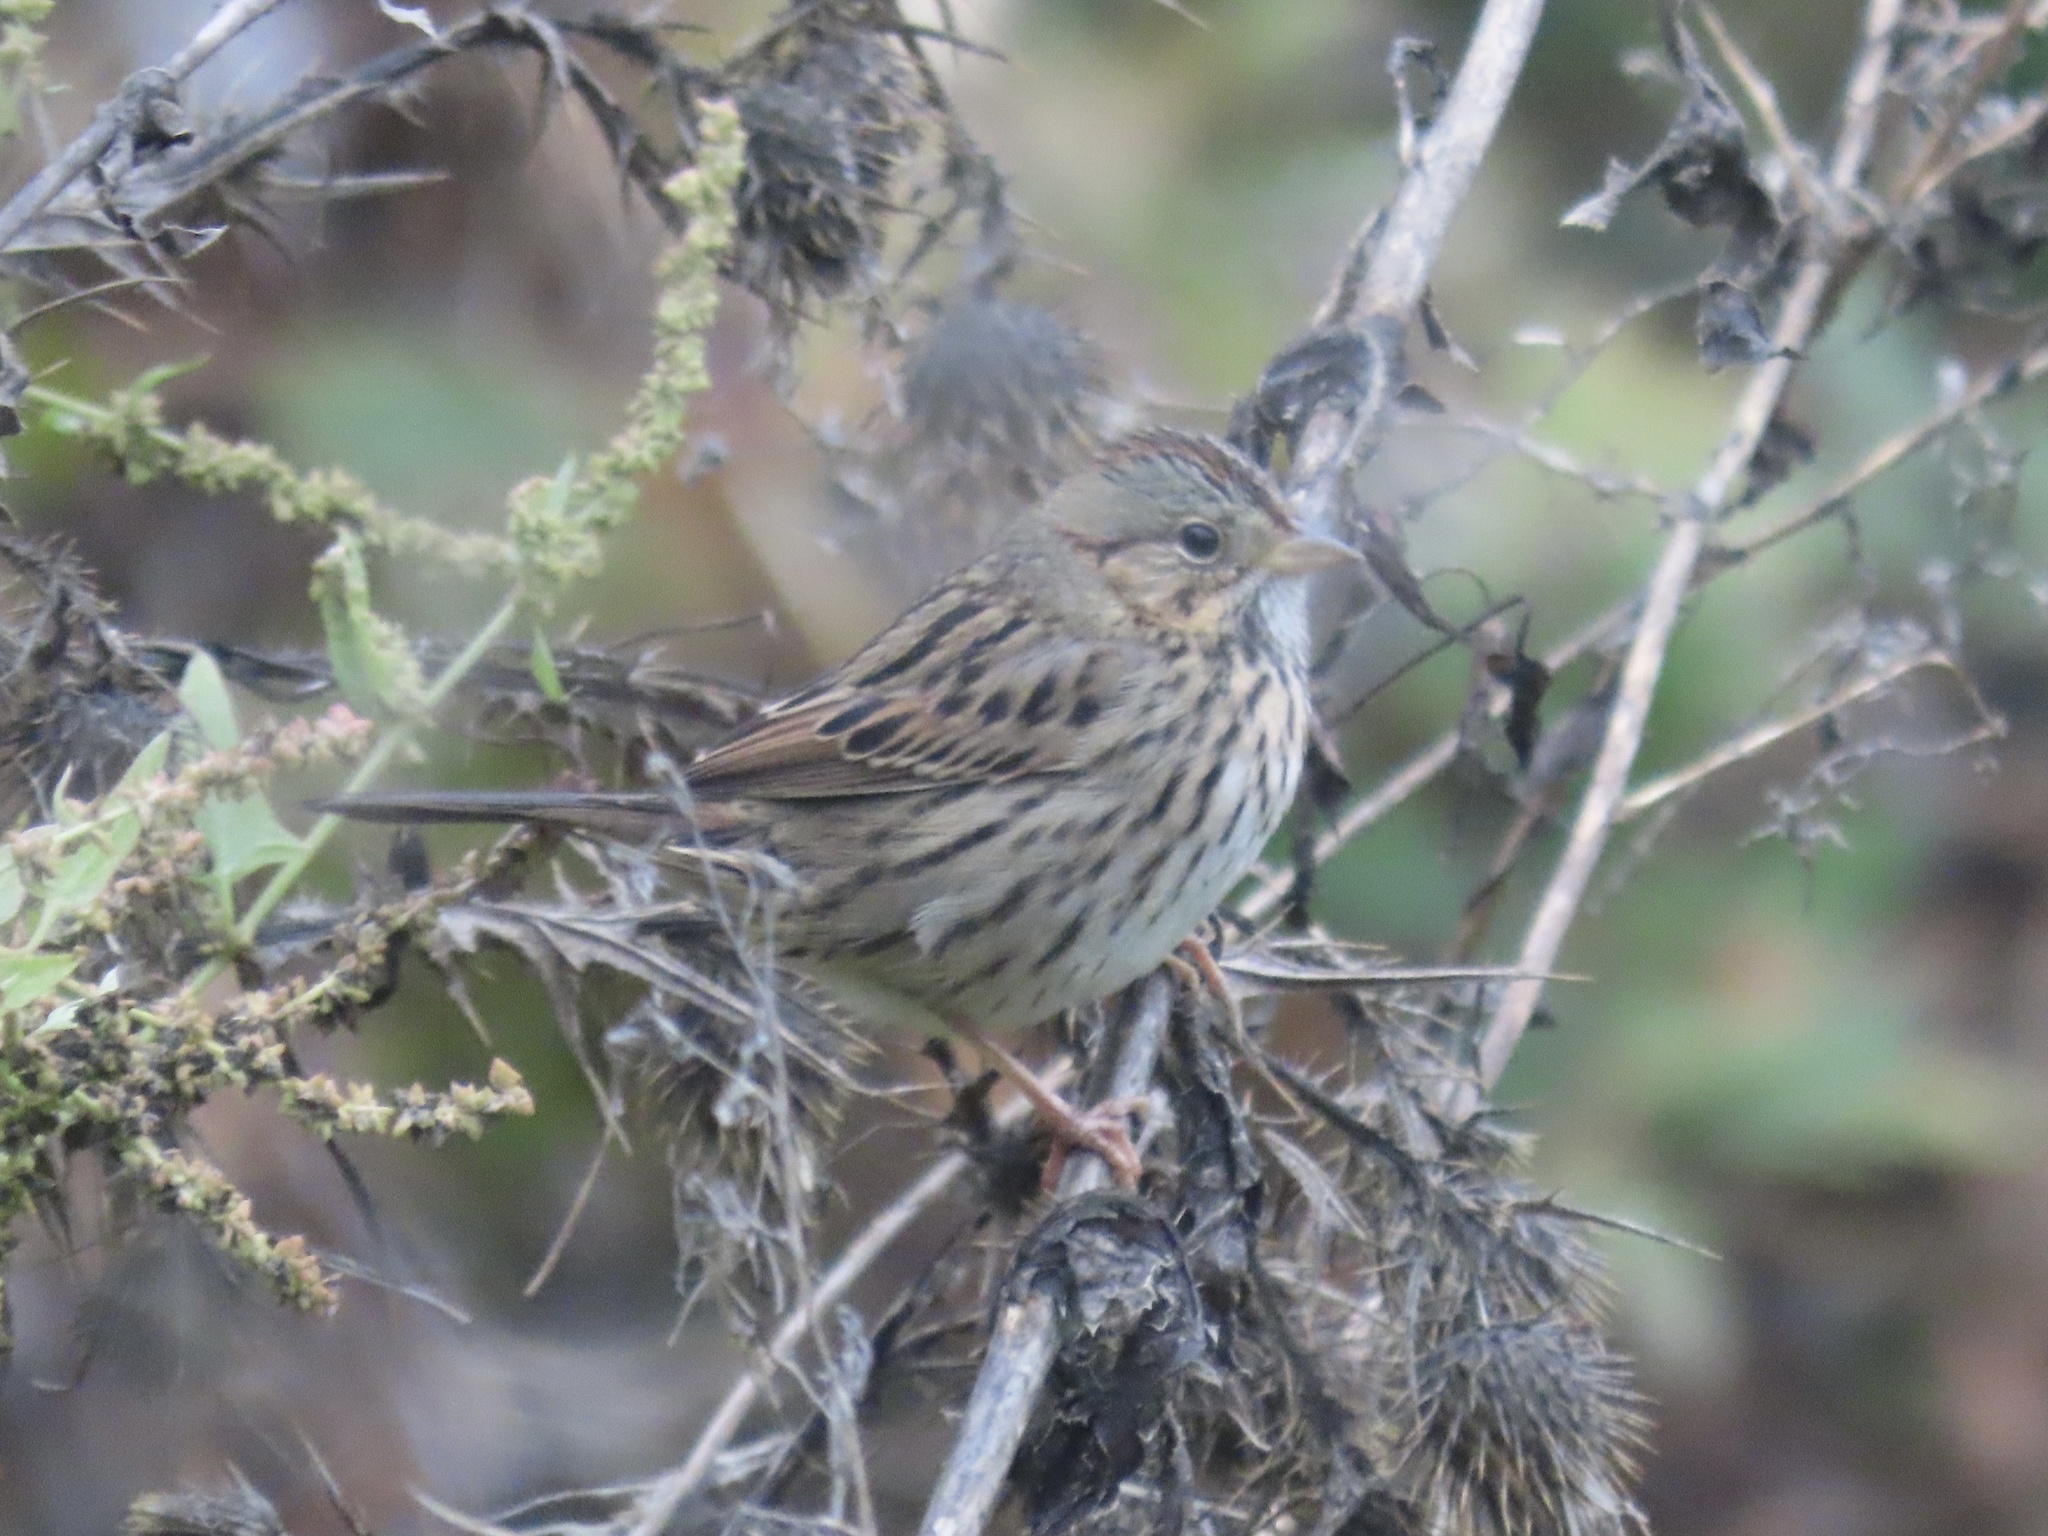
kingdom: Animalia
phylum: Chordata
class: Aves
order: Passeriformes
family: Passerellidae
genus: Melospiza
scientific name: Melospiza lincolnii
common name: Lincoln's sparrow
